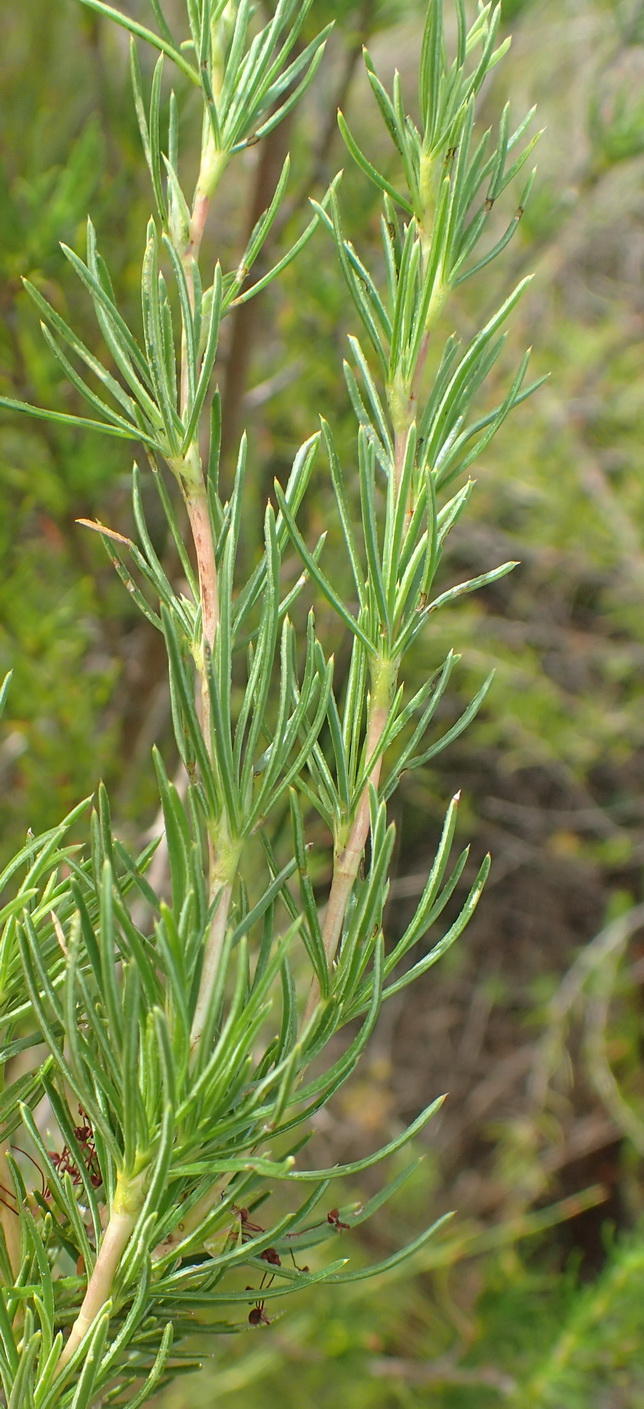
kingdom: Plantae
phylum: Tracheophyta
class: Magnoliopsida
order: Rosales
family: Rosaceae
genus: Cliffortia
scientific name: Cliffortia burchellii
